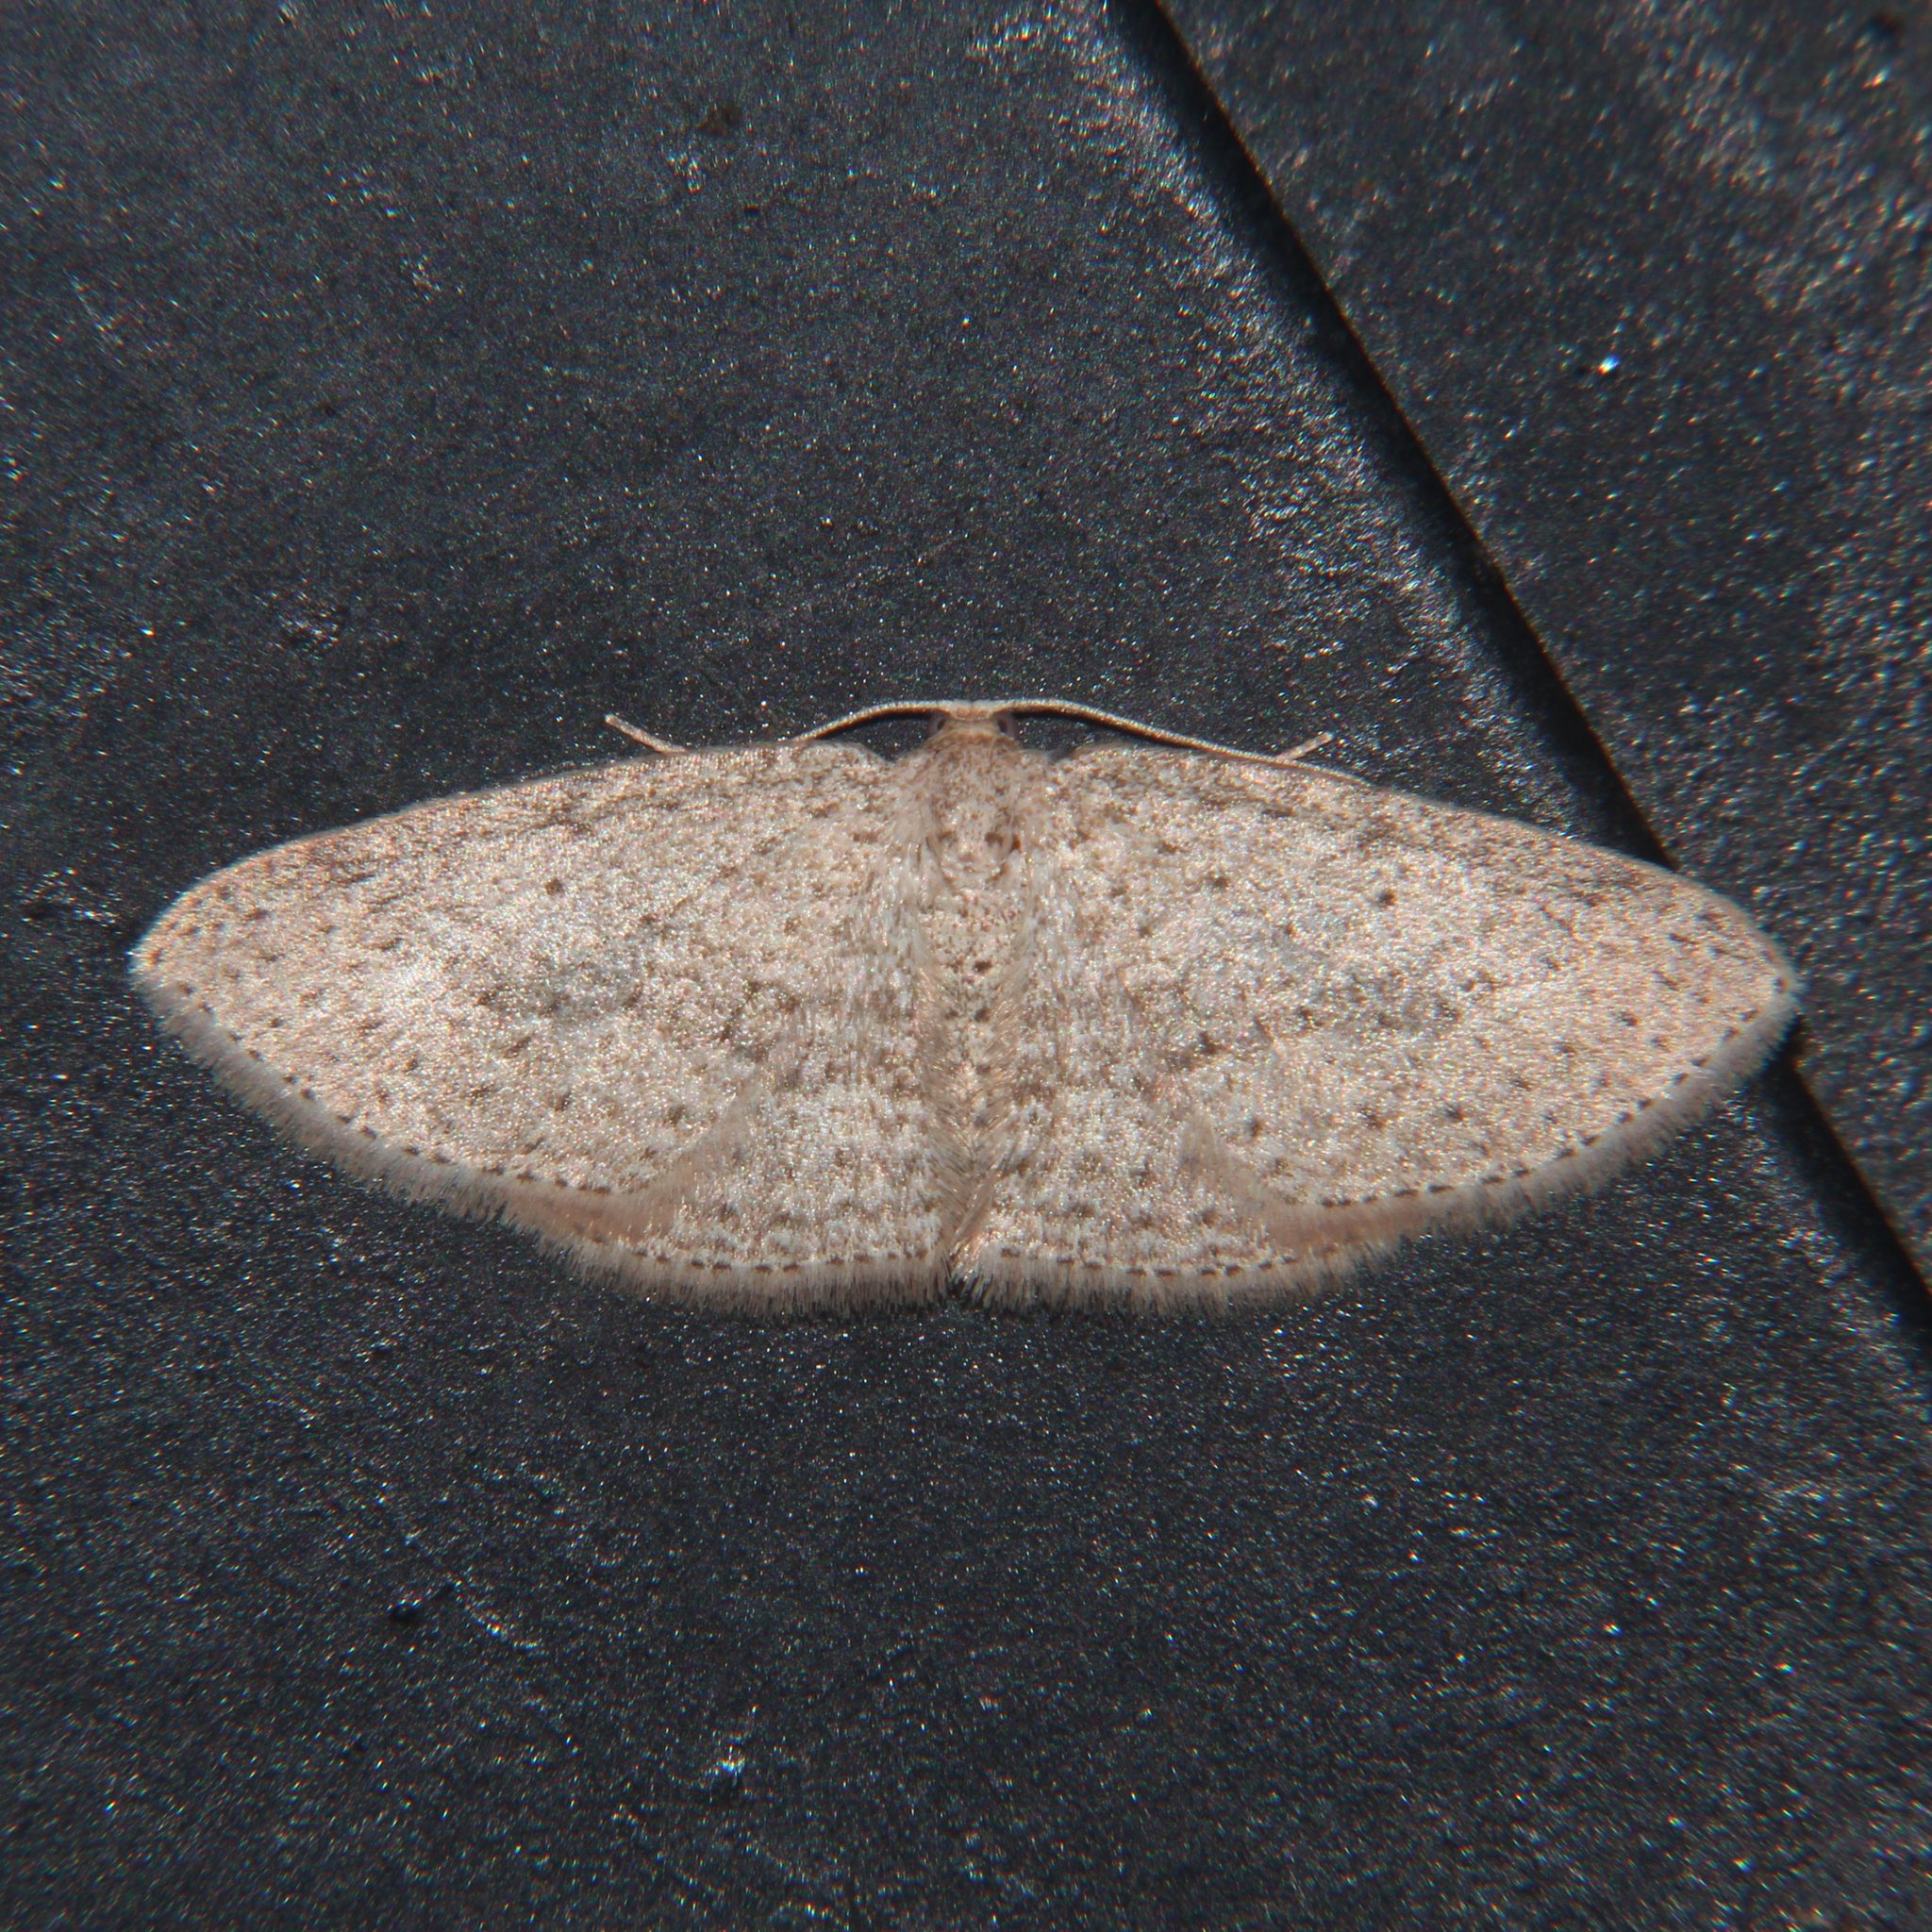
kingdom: Animalia
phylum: Arthropoda
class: Insecta
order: Lepidoptera
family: Geometridae
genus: Poecilasthena
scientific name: Poecilasthena schistaria
